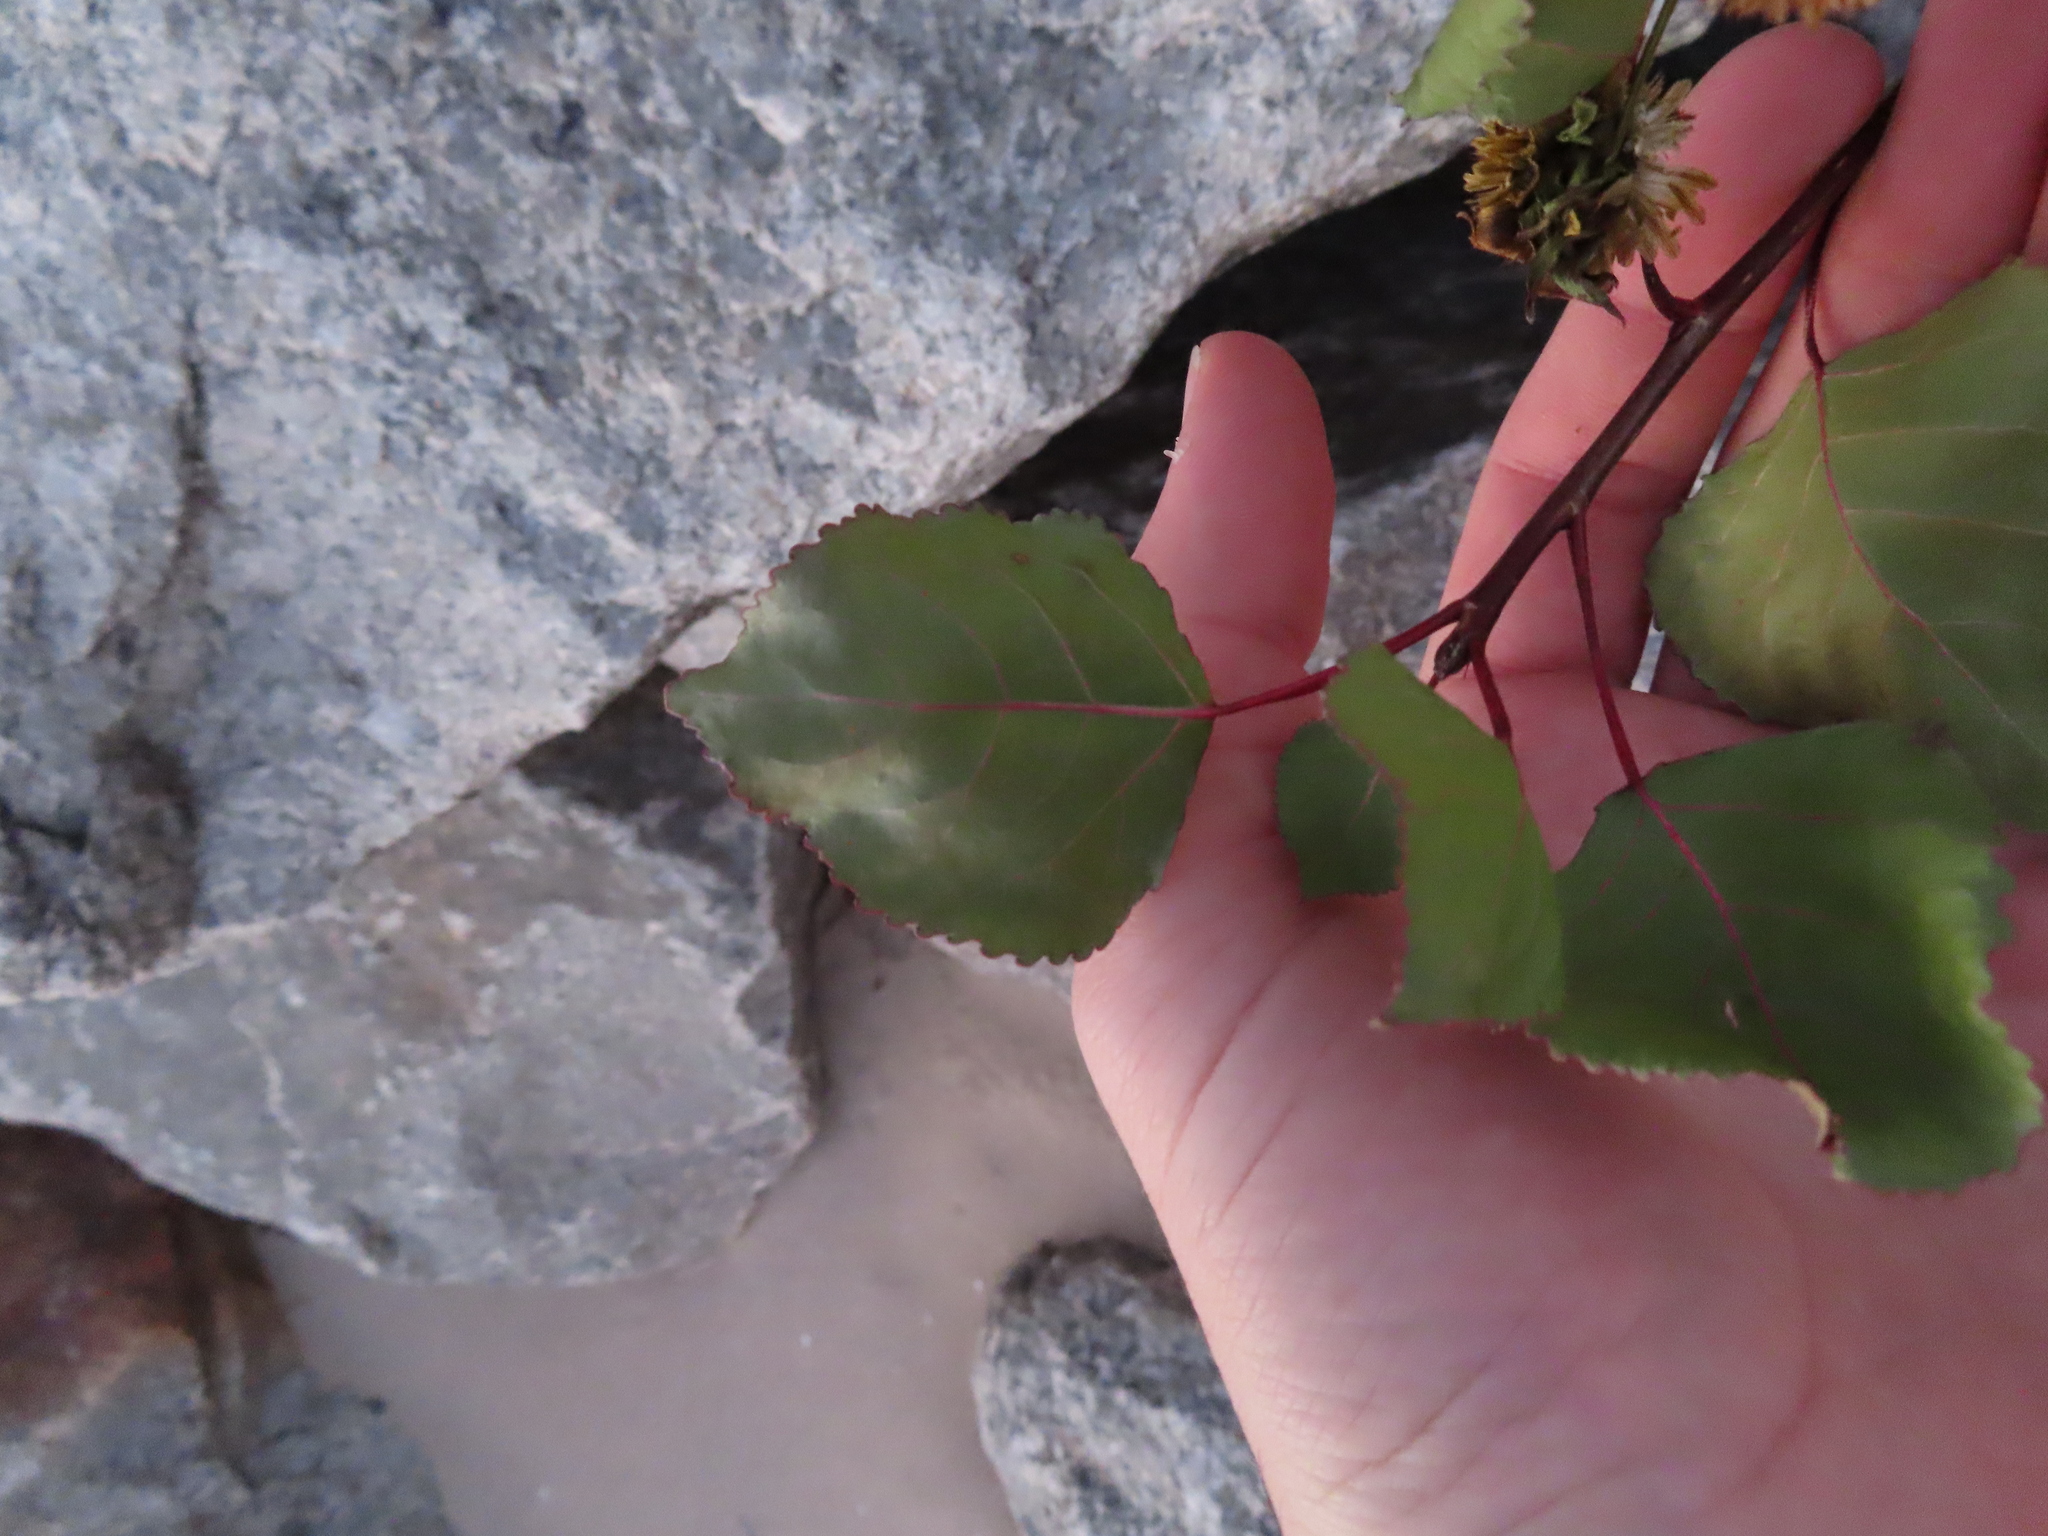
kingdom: Plantae
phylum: Tracheophyta
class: Magnoliopsida
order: Malpighiales
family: Salicaceae
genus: Populus
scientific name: Populus deltoides
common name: Eastern cottonwood
